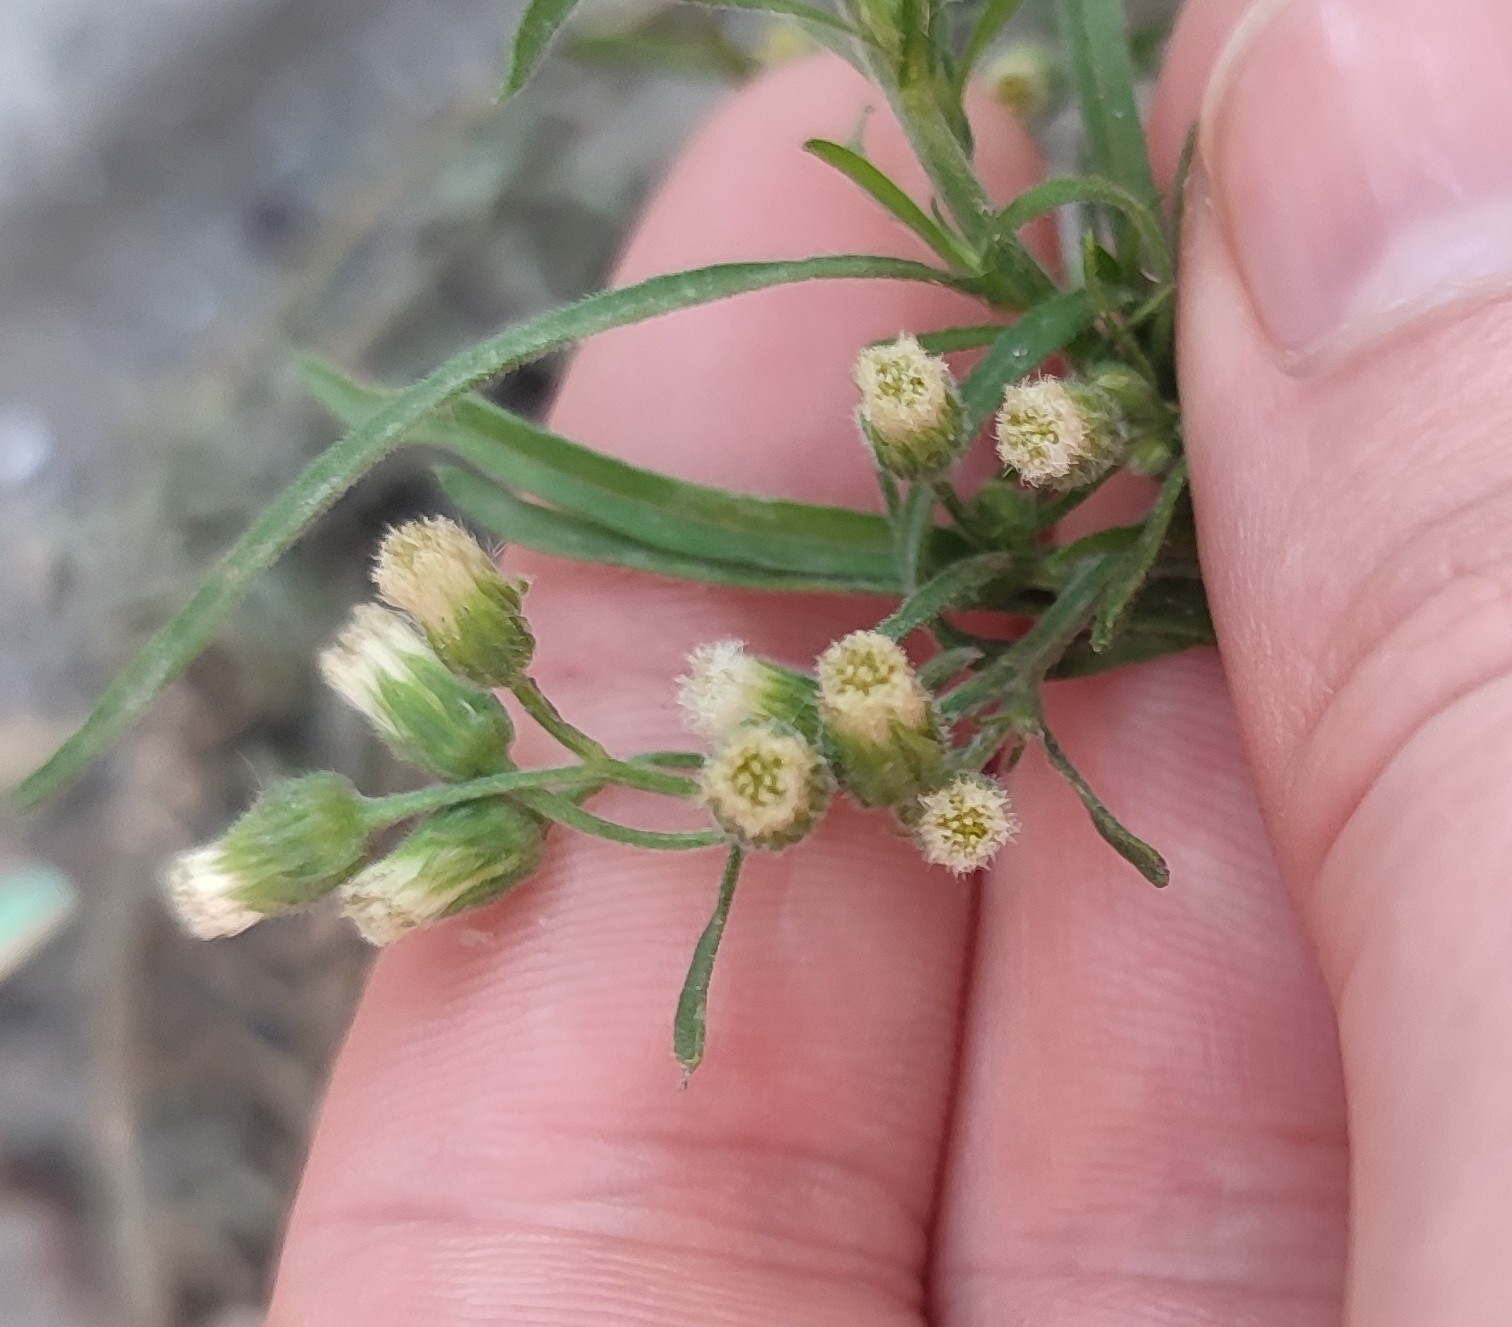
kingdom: Plantae
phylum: Tracheophyta
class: Magnoliopsida
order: Asterales
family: Asteraceae
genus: Erigeron
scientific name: Erigeron sumatrensis
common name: Daisy
